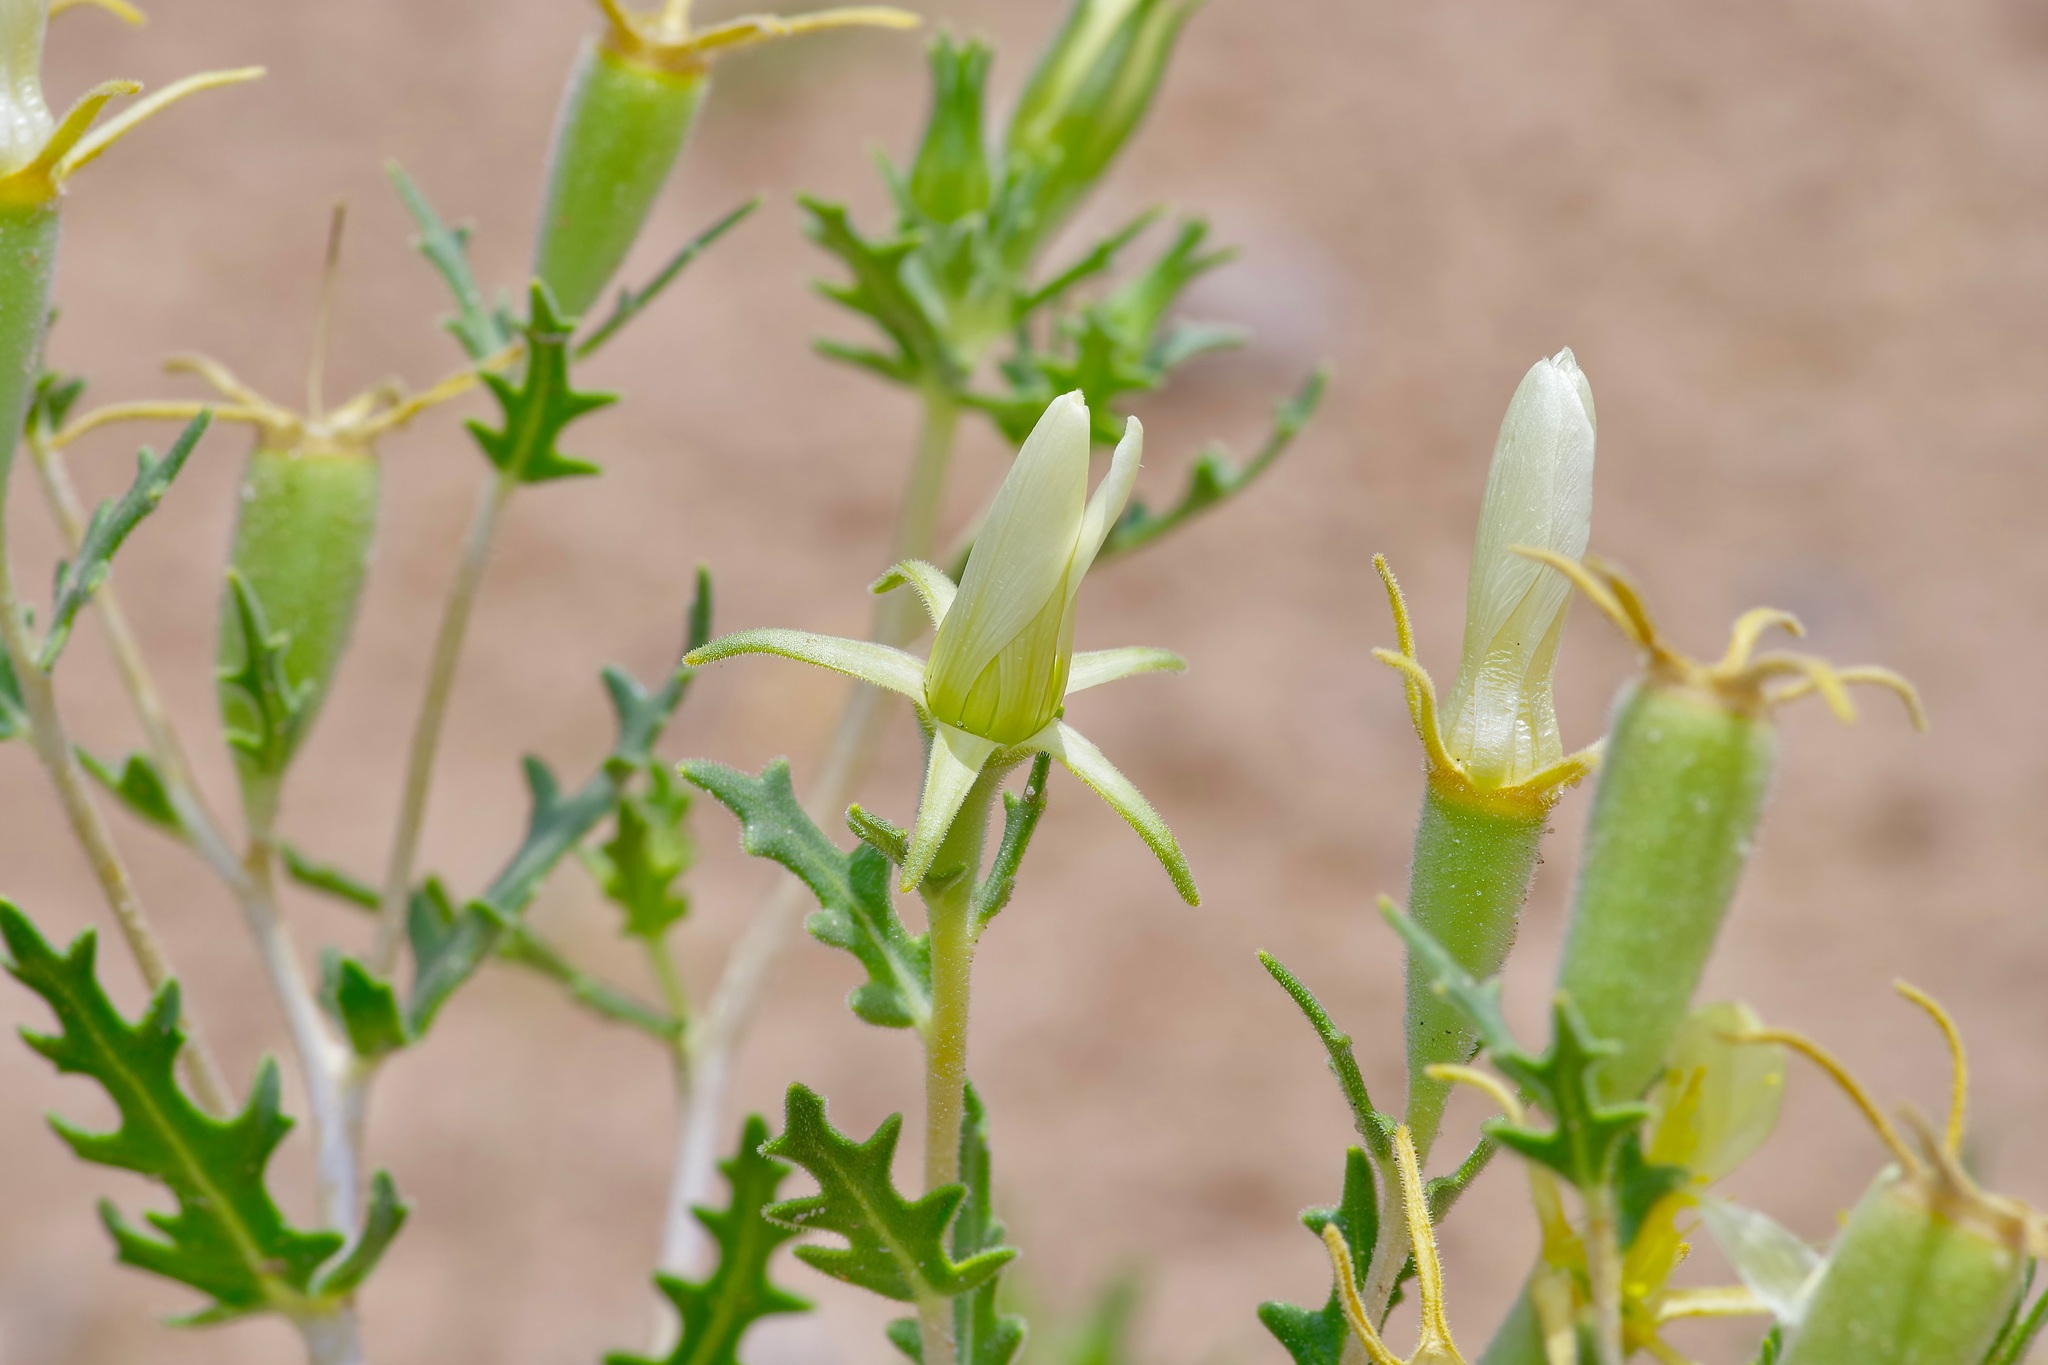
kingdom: Plantae
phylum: Tracheophyta
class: Magnoliopsida
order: Cornales
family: Loasaceae
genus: Mentzelia
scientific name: Mentzelia longiloba
